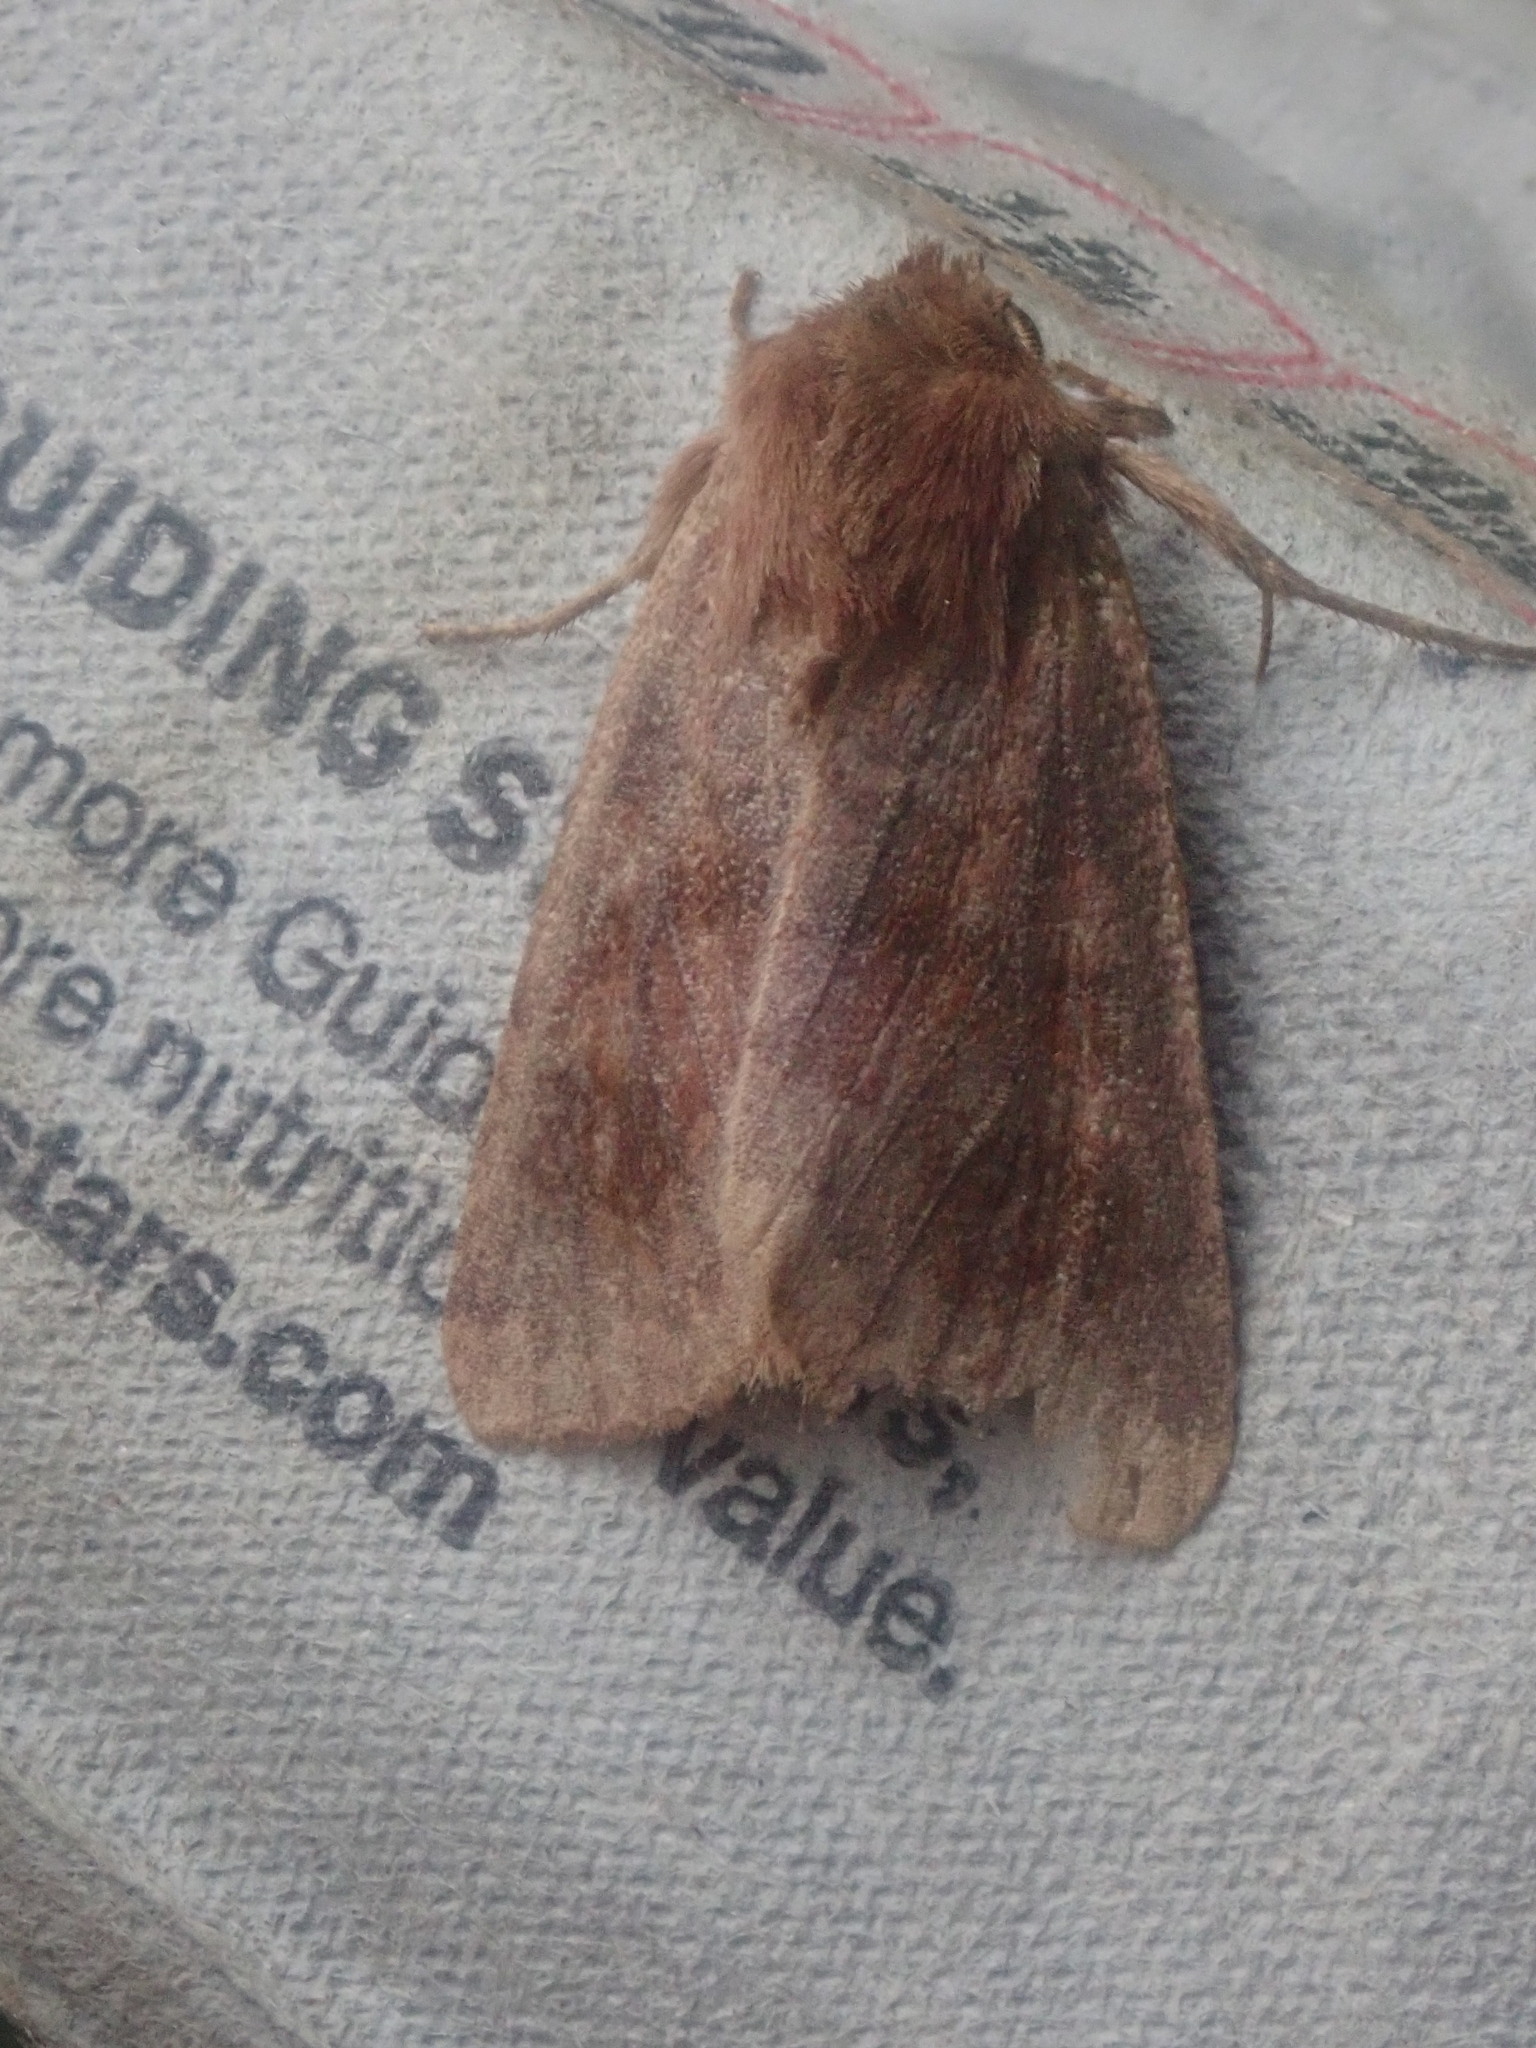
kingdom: Animalia
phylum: Arthropoda
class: Insecta
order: Lepidoptera
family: Noctuidae
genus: Nephelodes
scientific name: Nephelodes minians
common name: Bronzed cutworm
